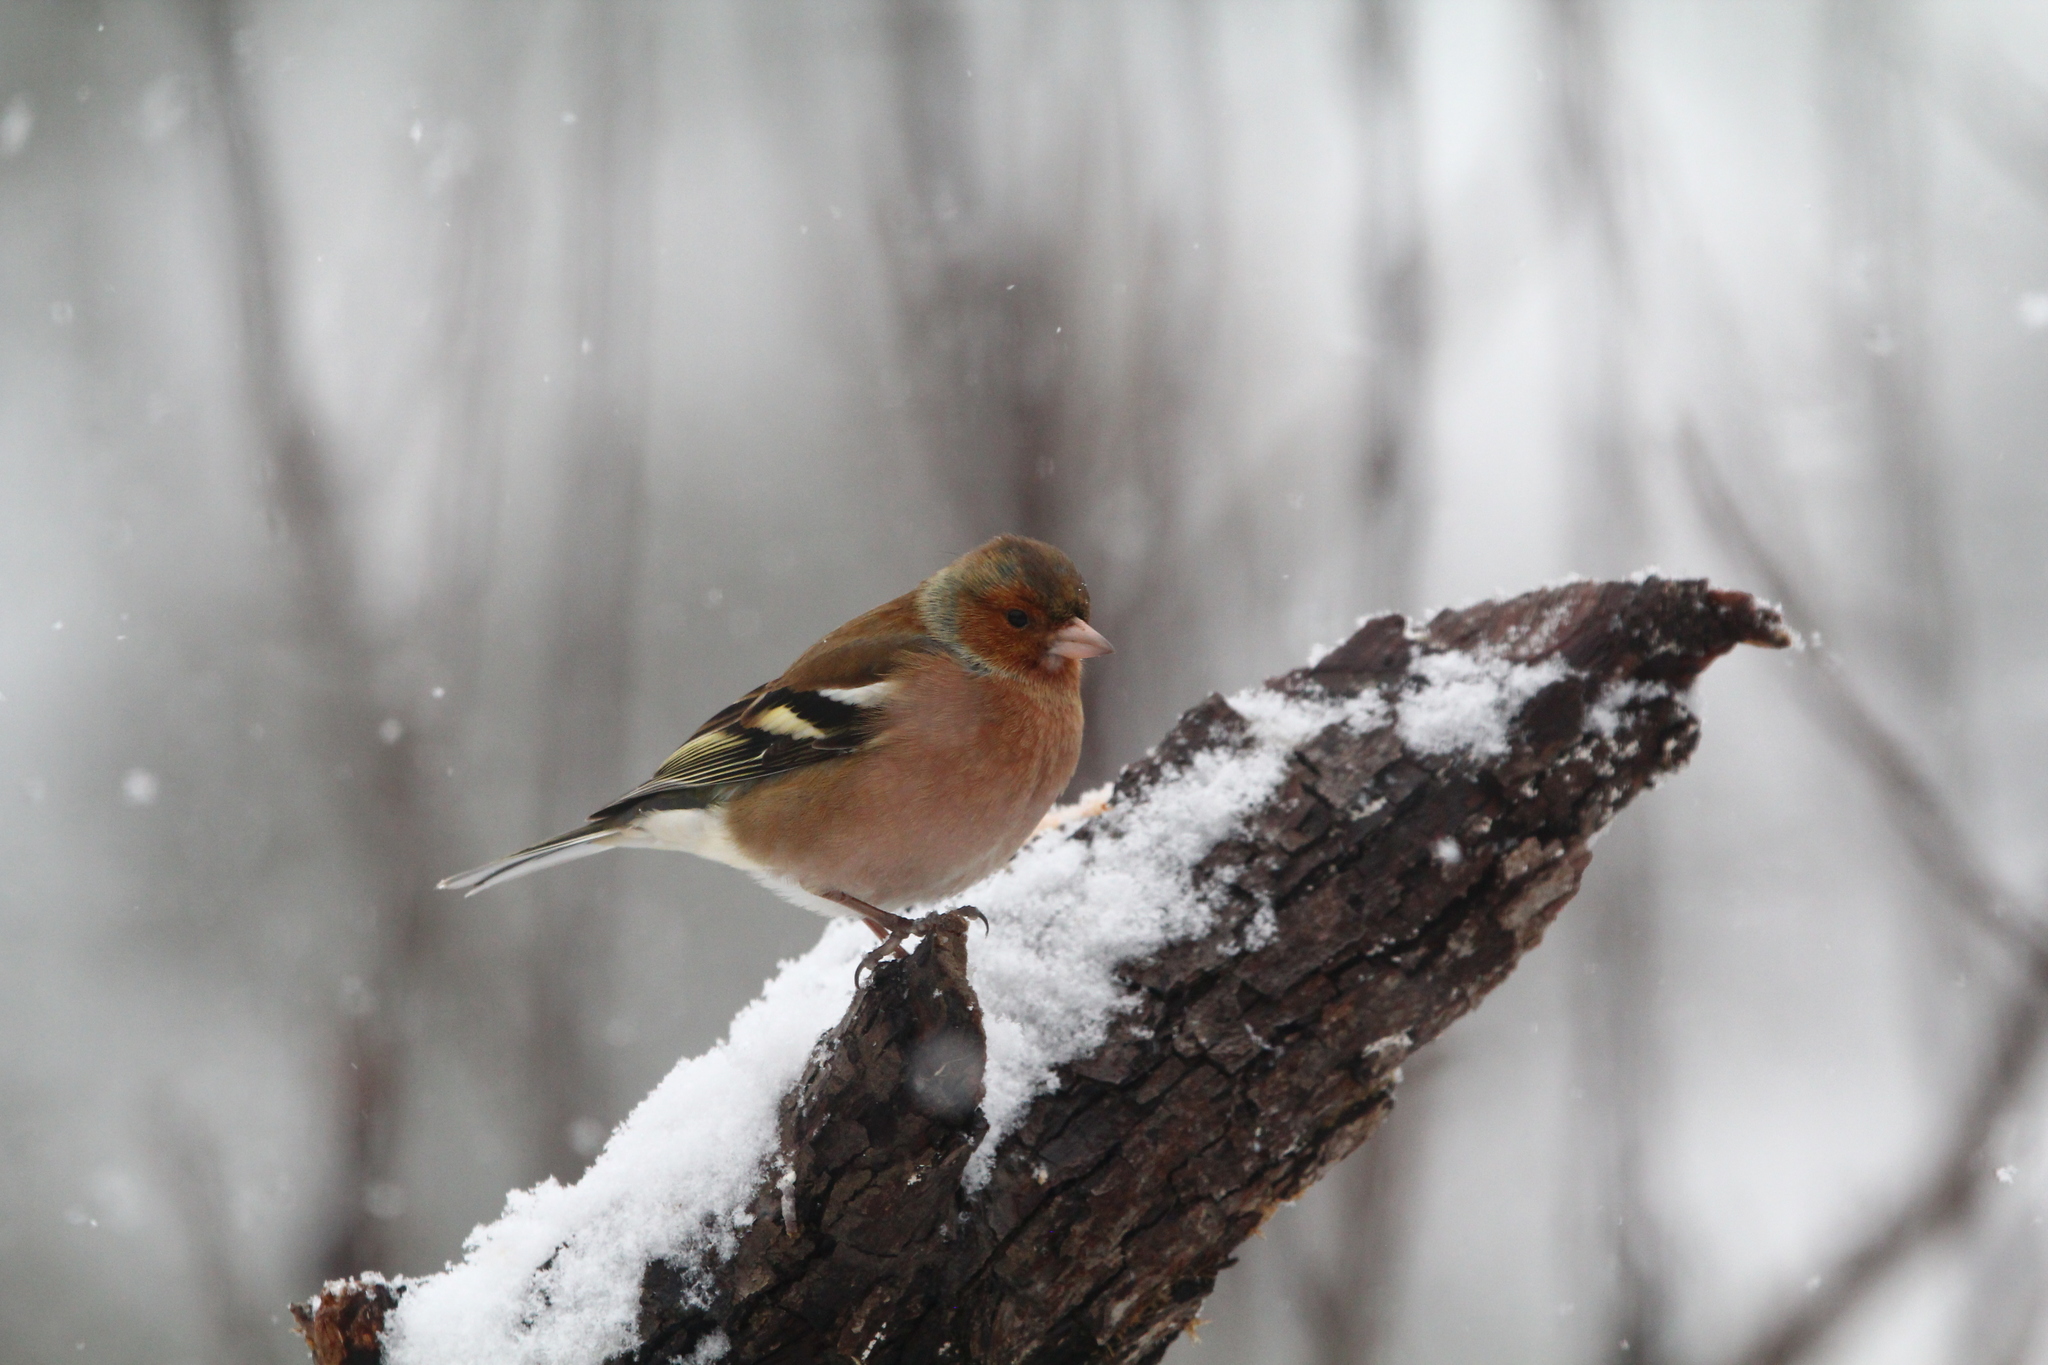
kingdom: Animalia
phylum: Chordata
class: Aves
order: Passeriformes
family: Fringillidae
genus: Fringilla
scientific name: Fringilla coelebs
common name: Common chaffinch
